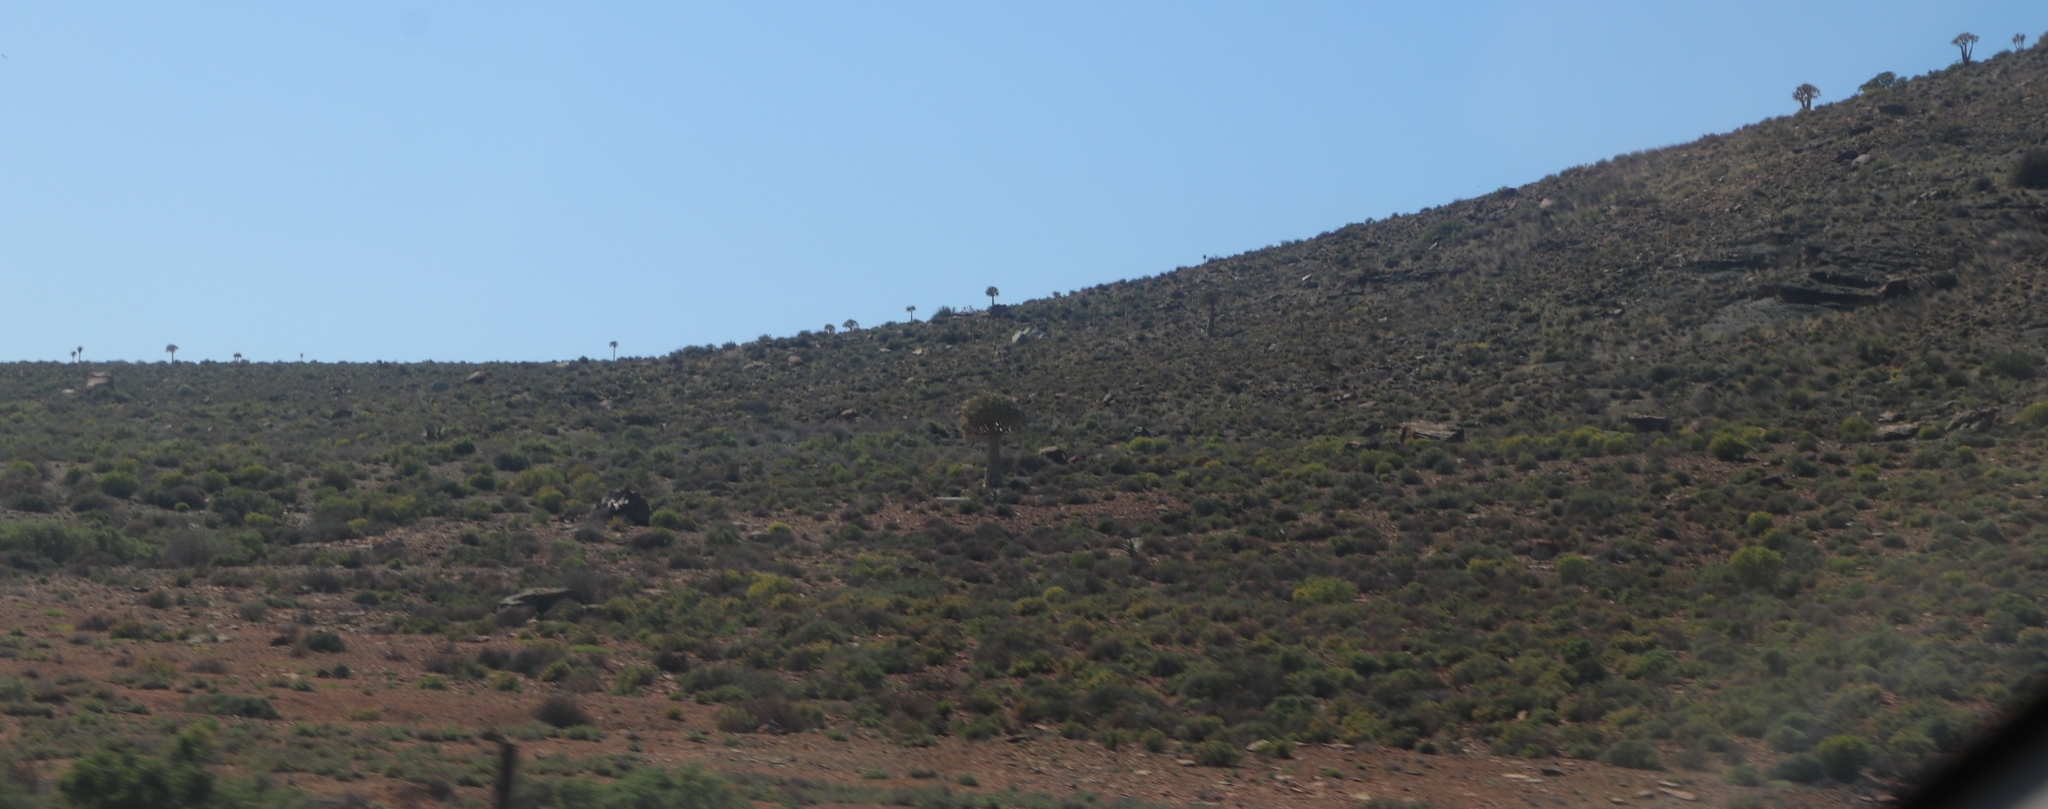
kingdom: Plantae
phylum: Tracheophyta
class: Liliopsida
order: Asparagales
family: Asphodelaceae
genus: Aloidendron
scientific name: Aloidendron dichotomum
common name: Quiver tree
